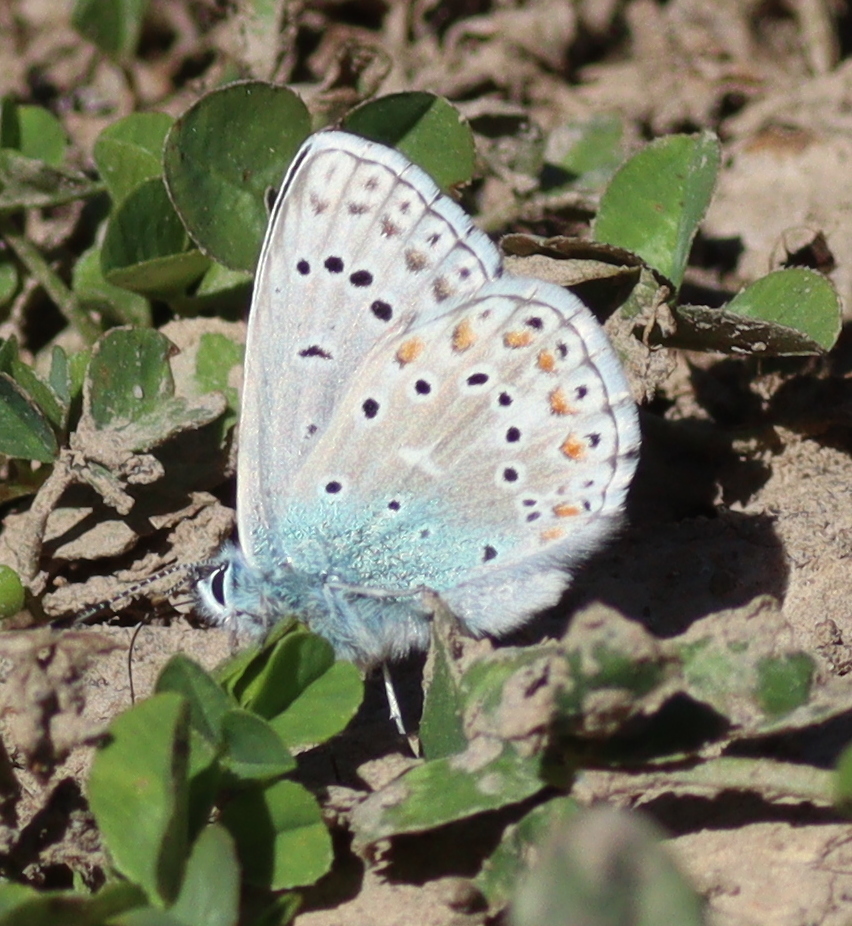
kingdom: Animalia
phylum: Arthropoda
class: Insecta
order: Lepidoptera
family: Lycaenidae
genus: Kretania
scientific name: Kretania modica
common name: Anatolian zephyr blue
